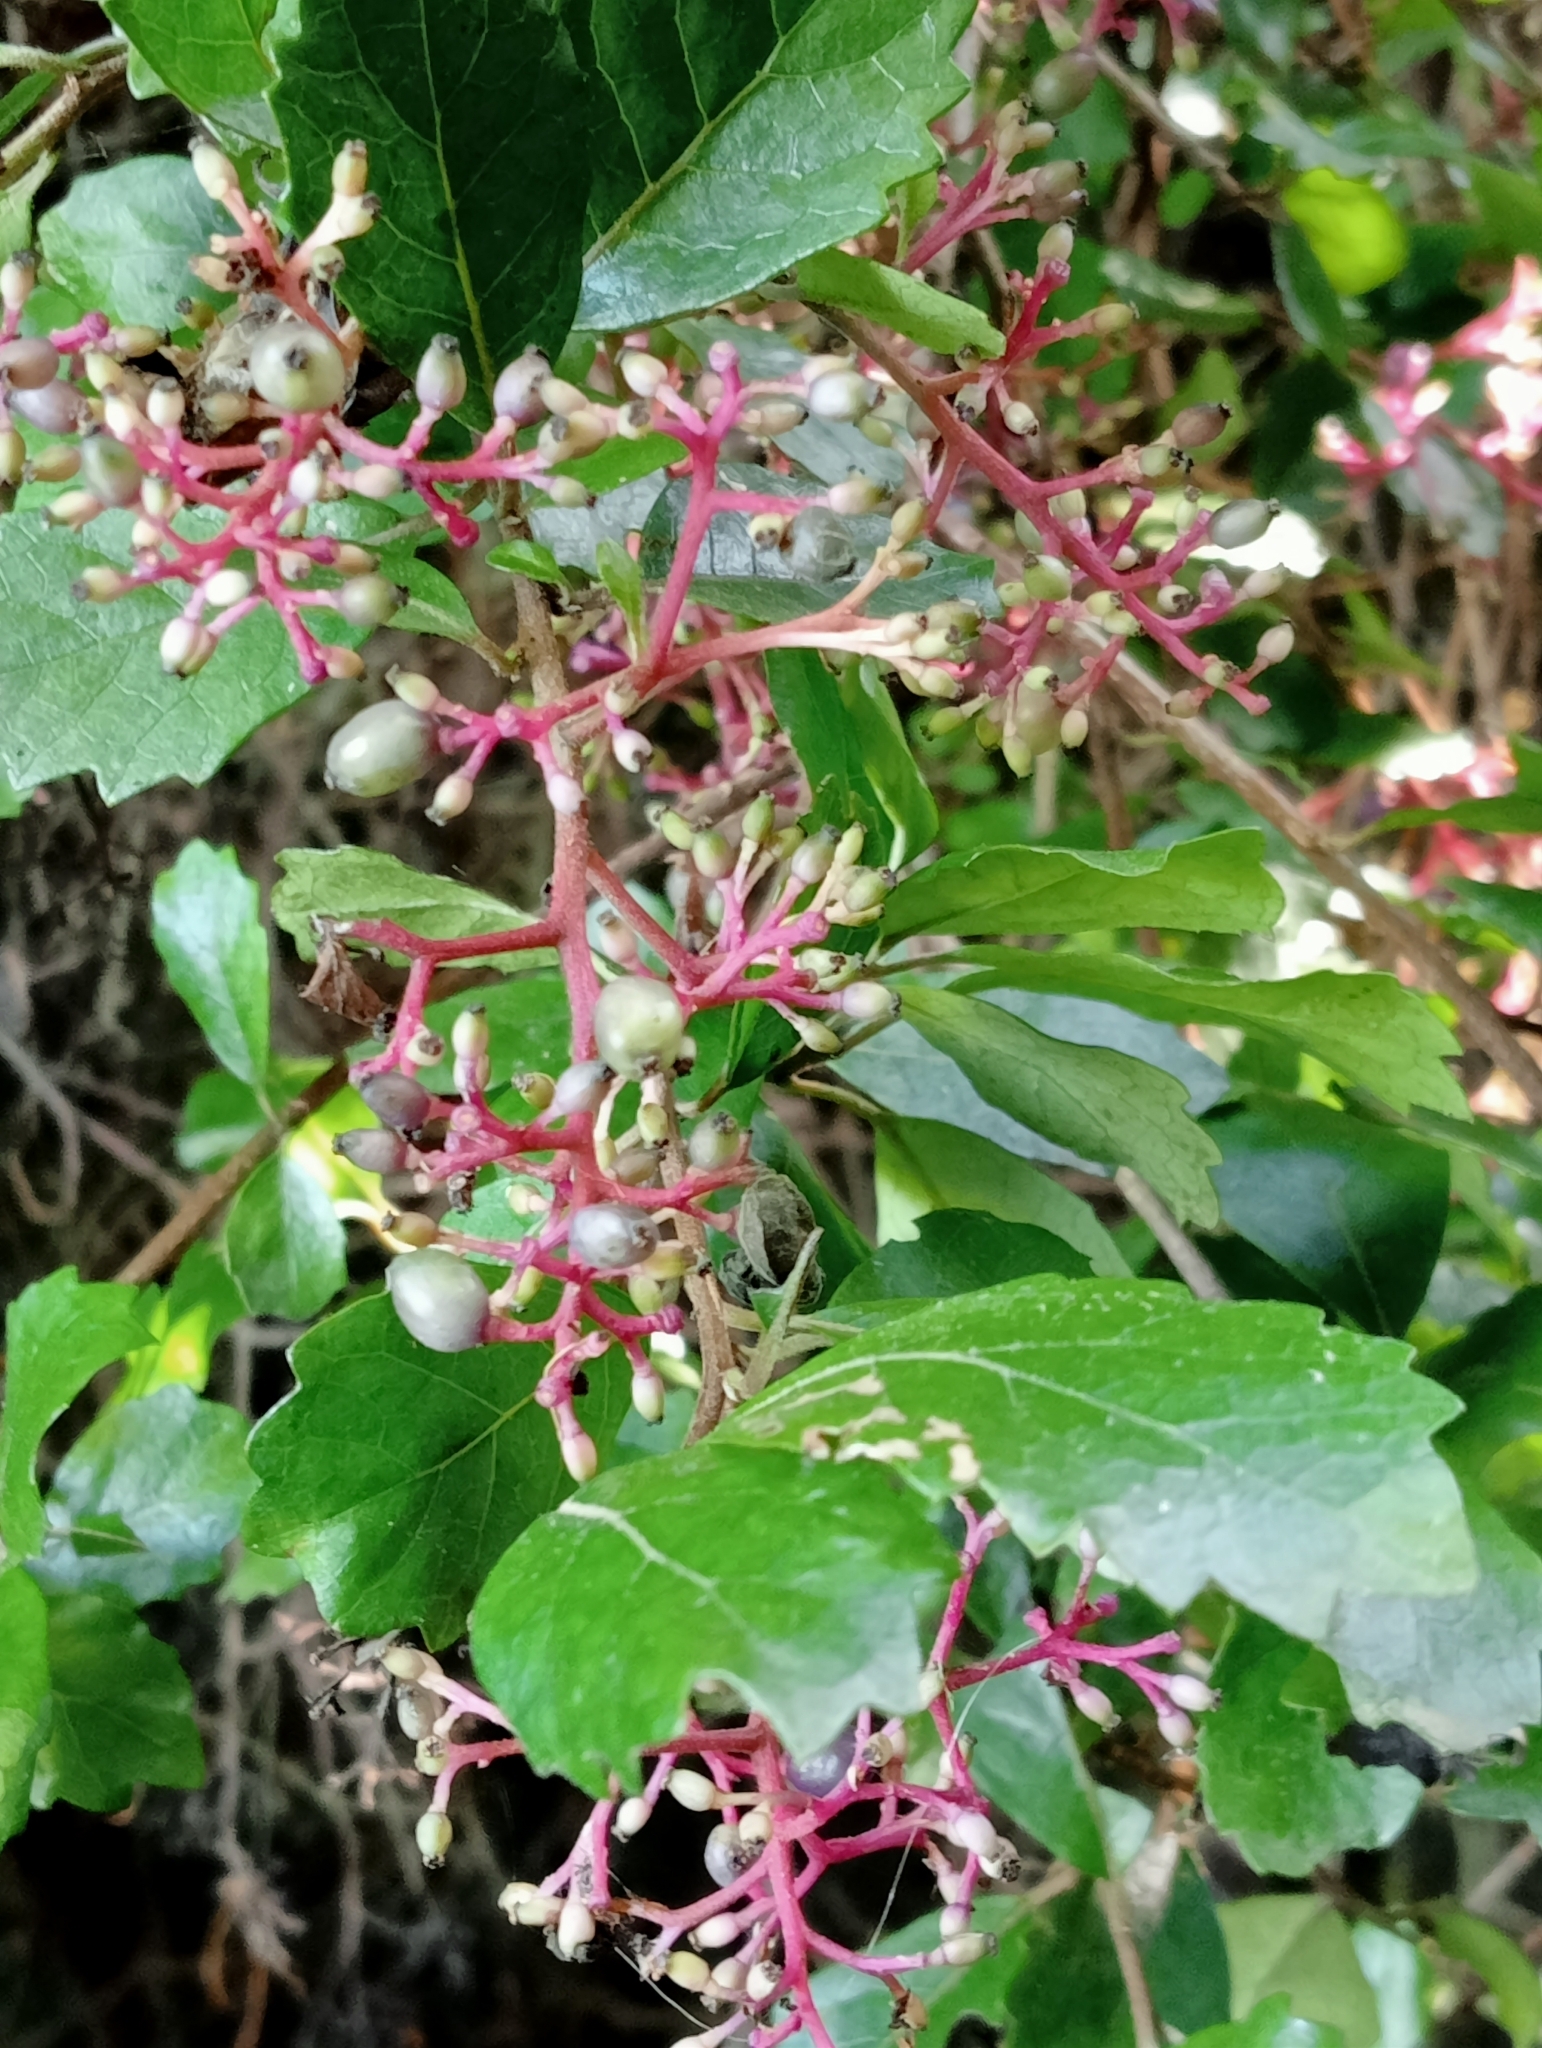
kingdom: Plantae
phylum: Tracheophyta
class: Magnoliopsida
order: Apiales
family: Pennantiaceae
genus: Pennantia
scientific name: Pennantia corymbosa
